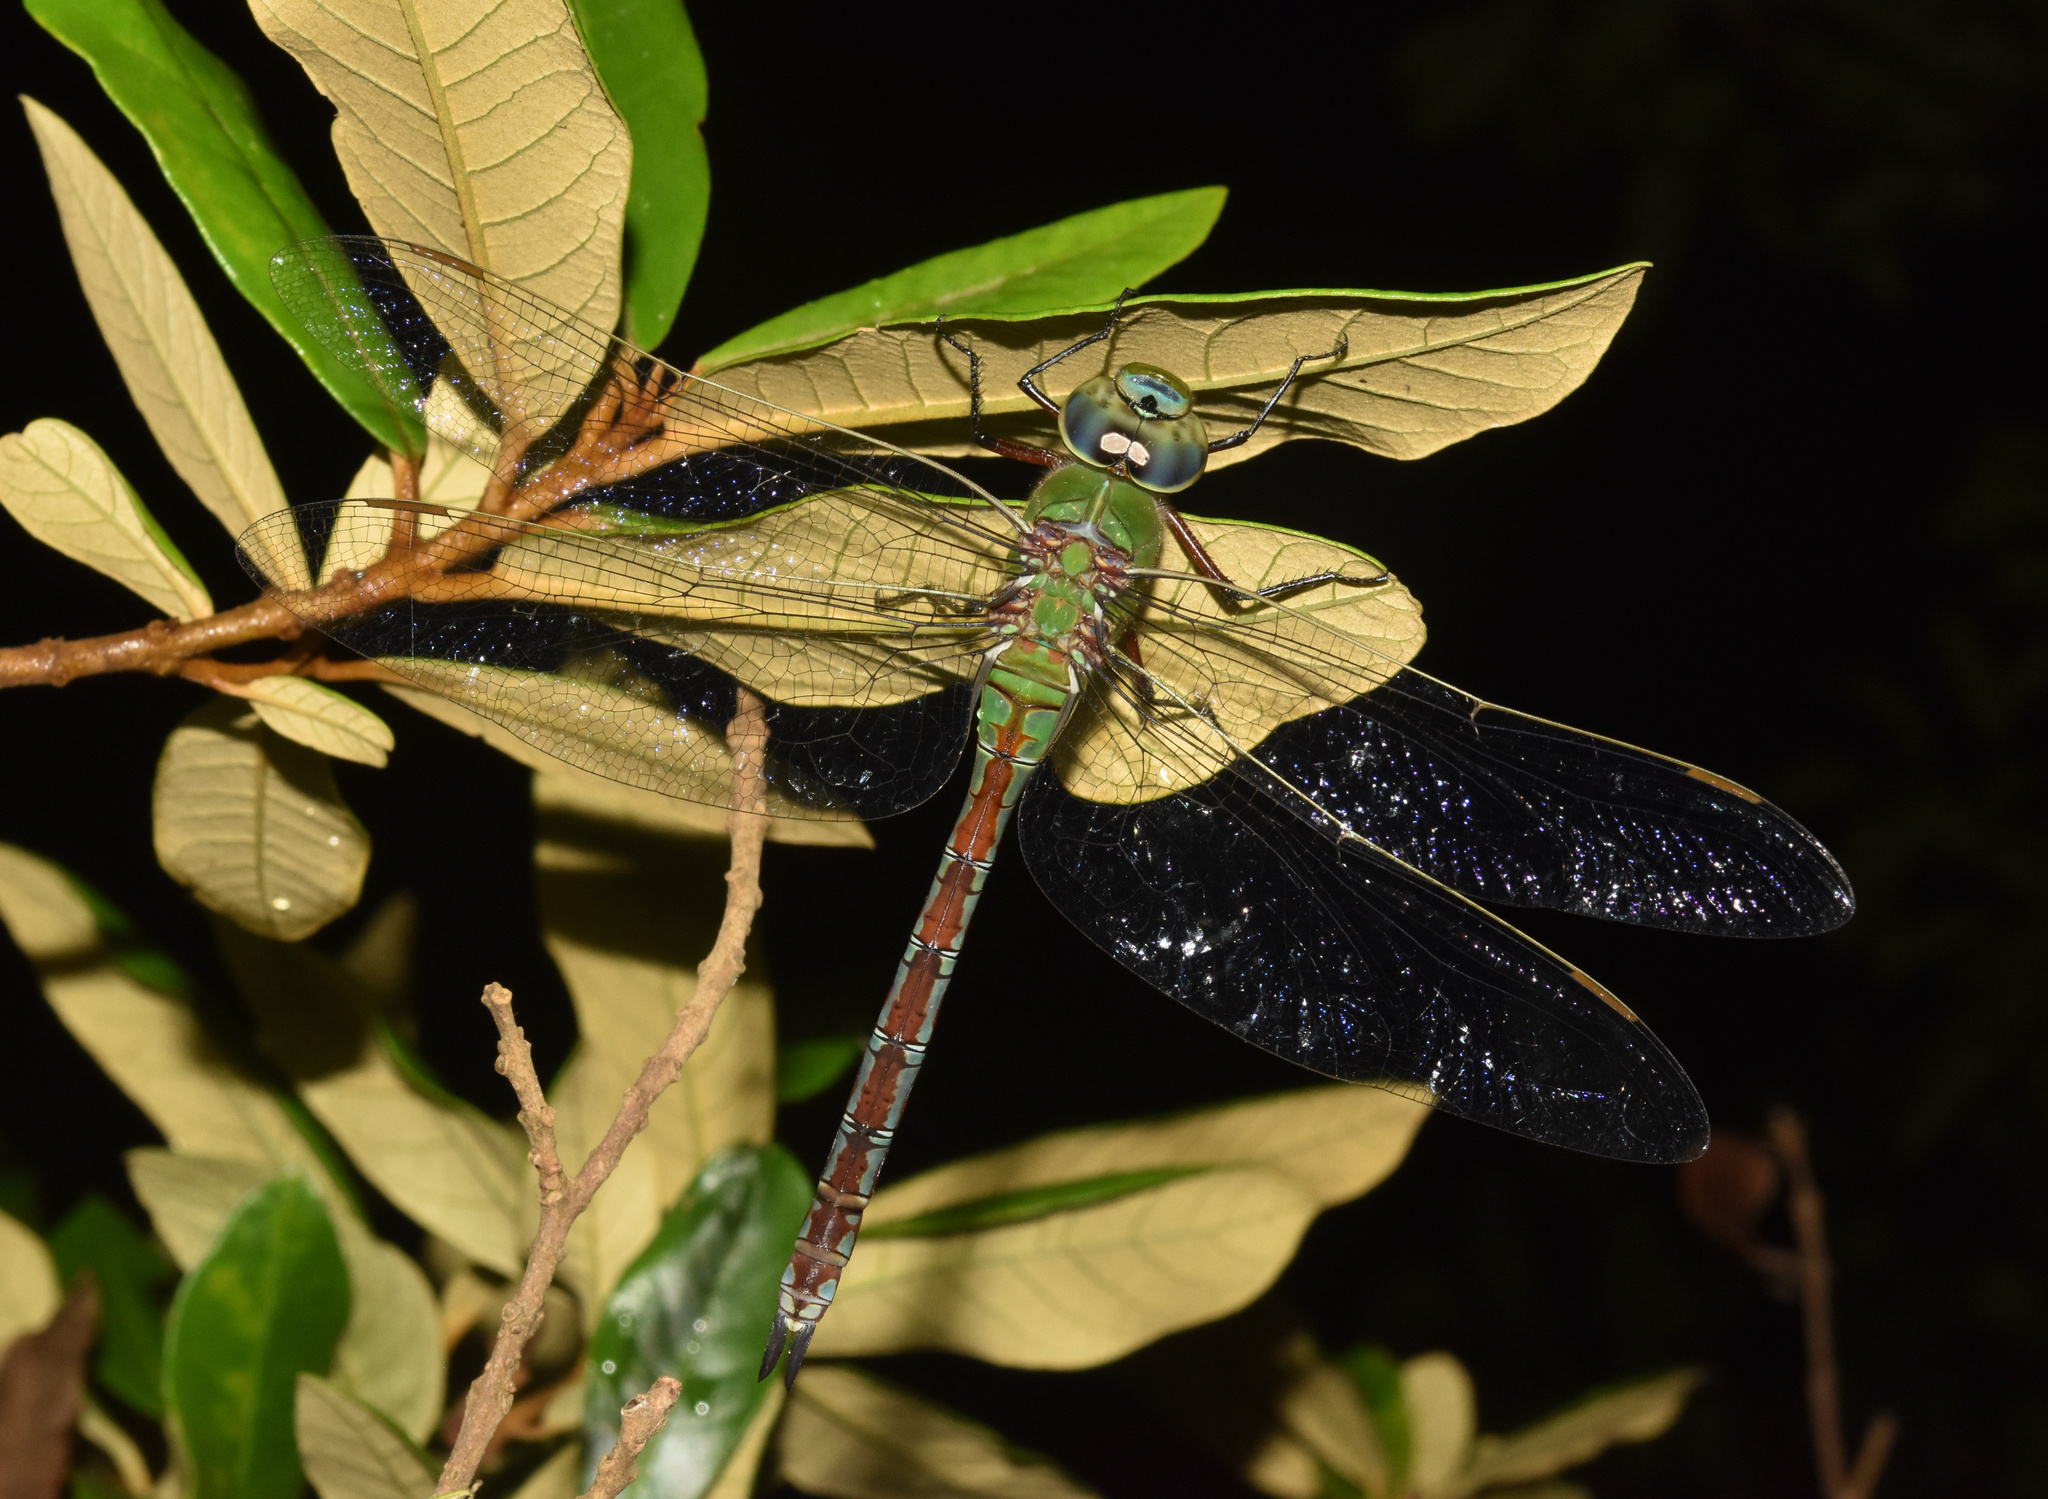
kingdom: Animalia
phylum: Arthropoda
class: Insecta
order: Odonata
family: Aeshnidae
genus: Anax
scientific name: Anax imperator
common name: Emperor dragonfly
